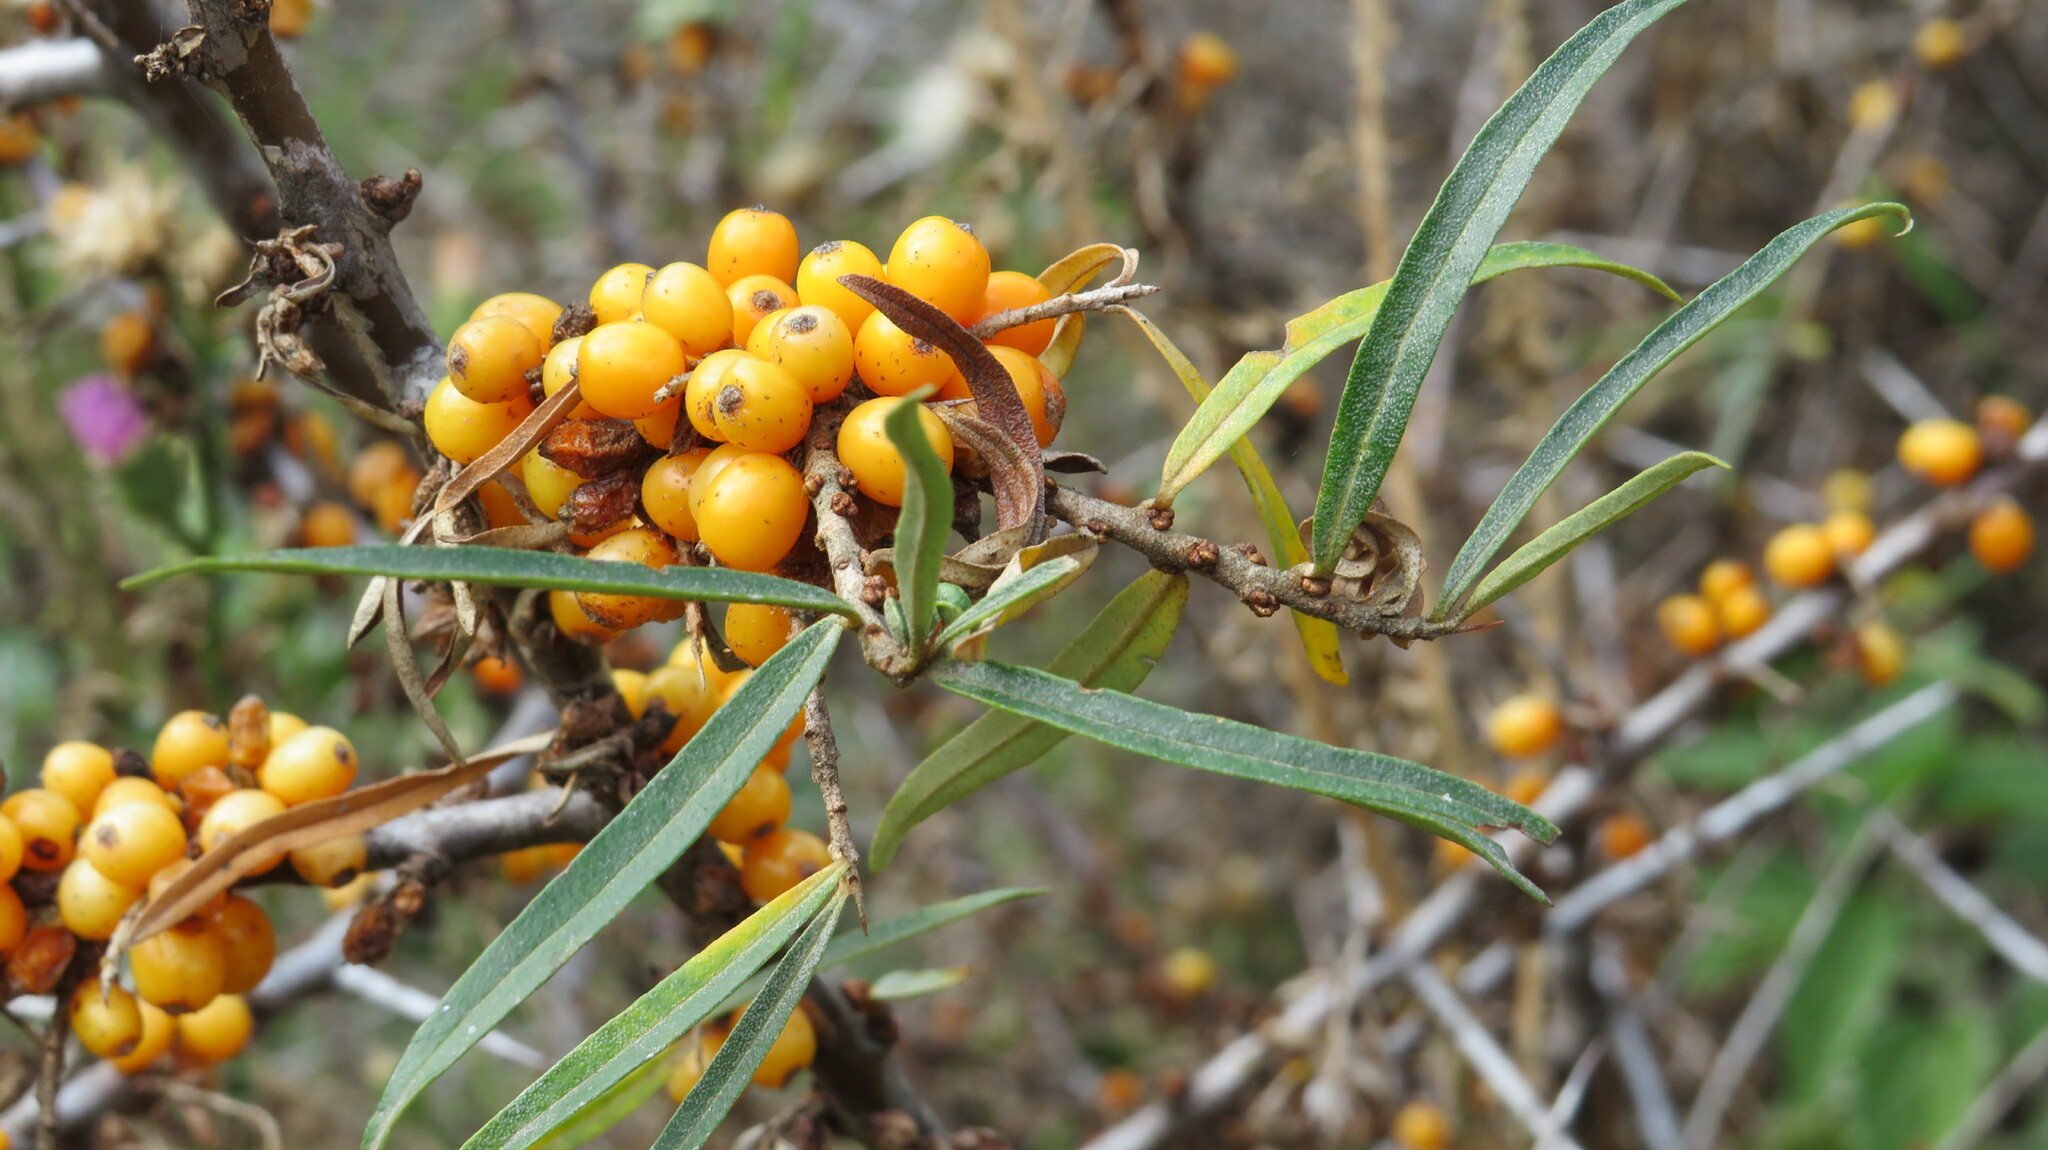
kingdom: Plantae
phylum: Tracheophyta
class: Magnoliopsida
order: Rosales
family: Elaeagnaceae
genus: Hippophae
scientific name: Hippophae rhamnoides
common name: Sea-buckthorn
